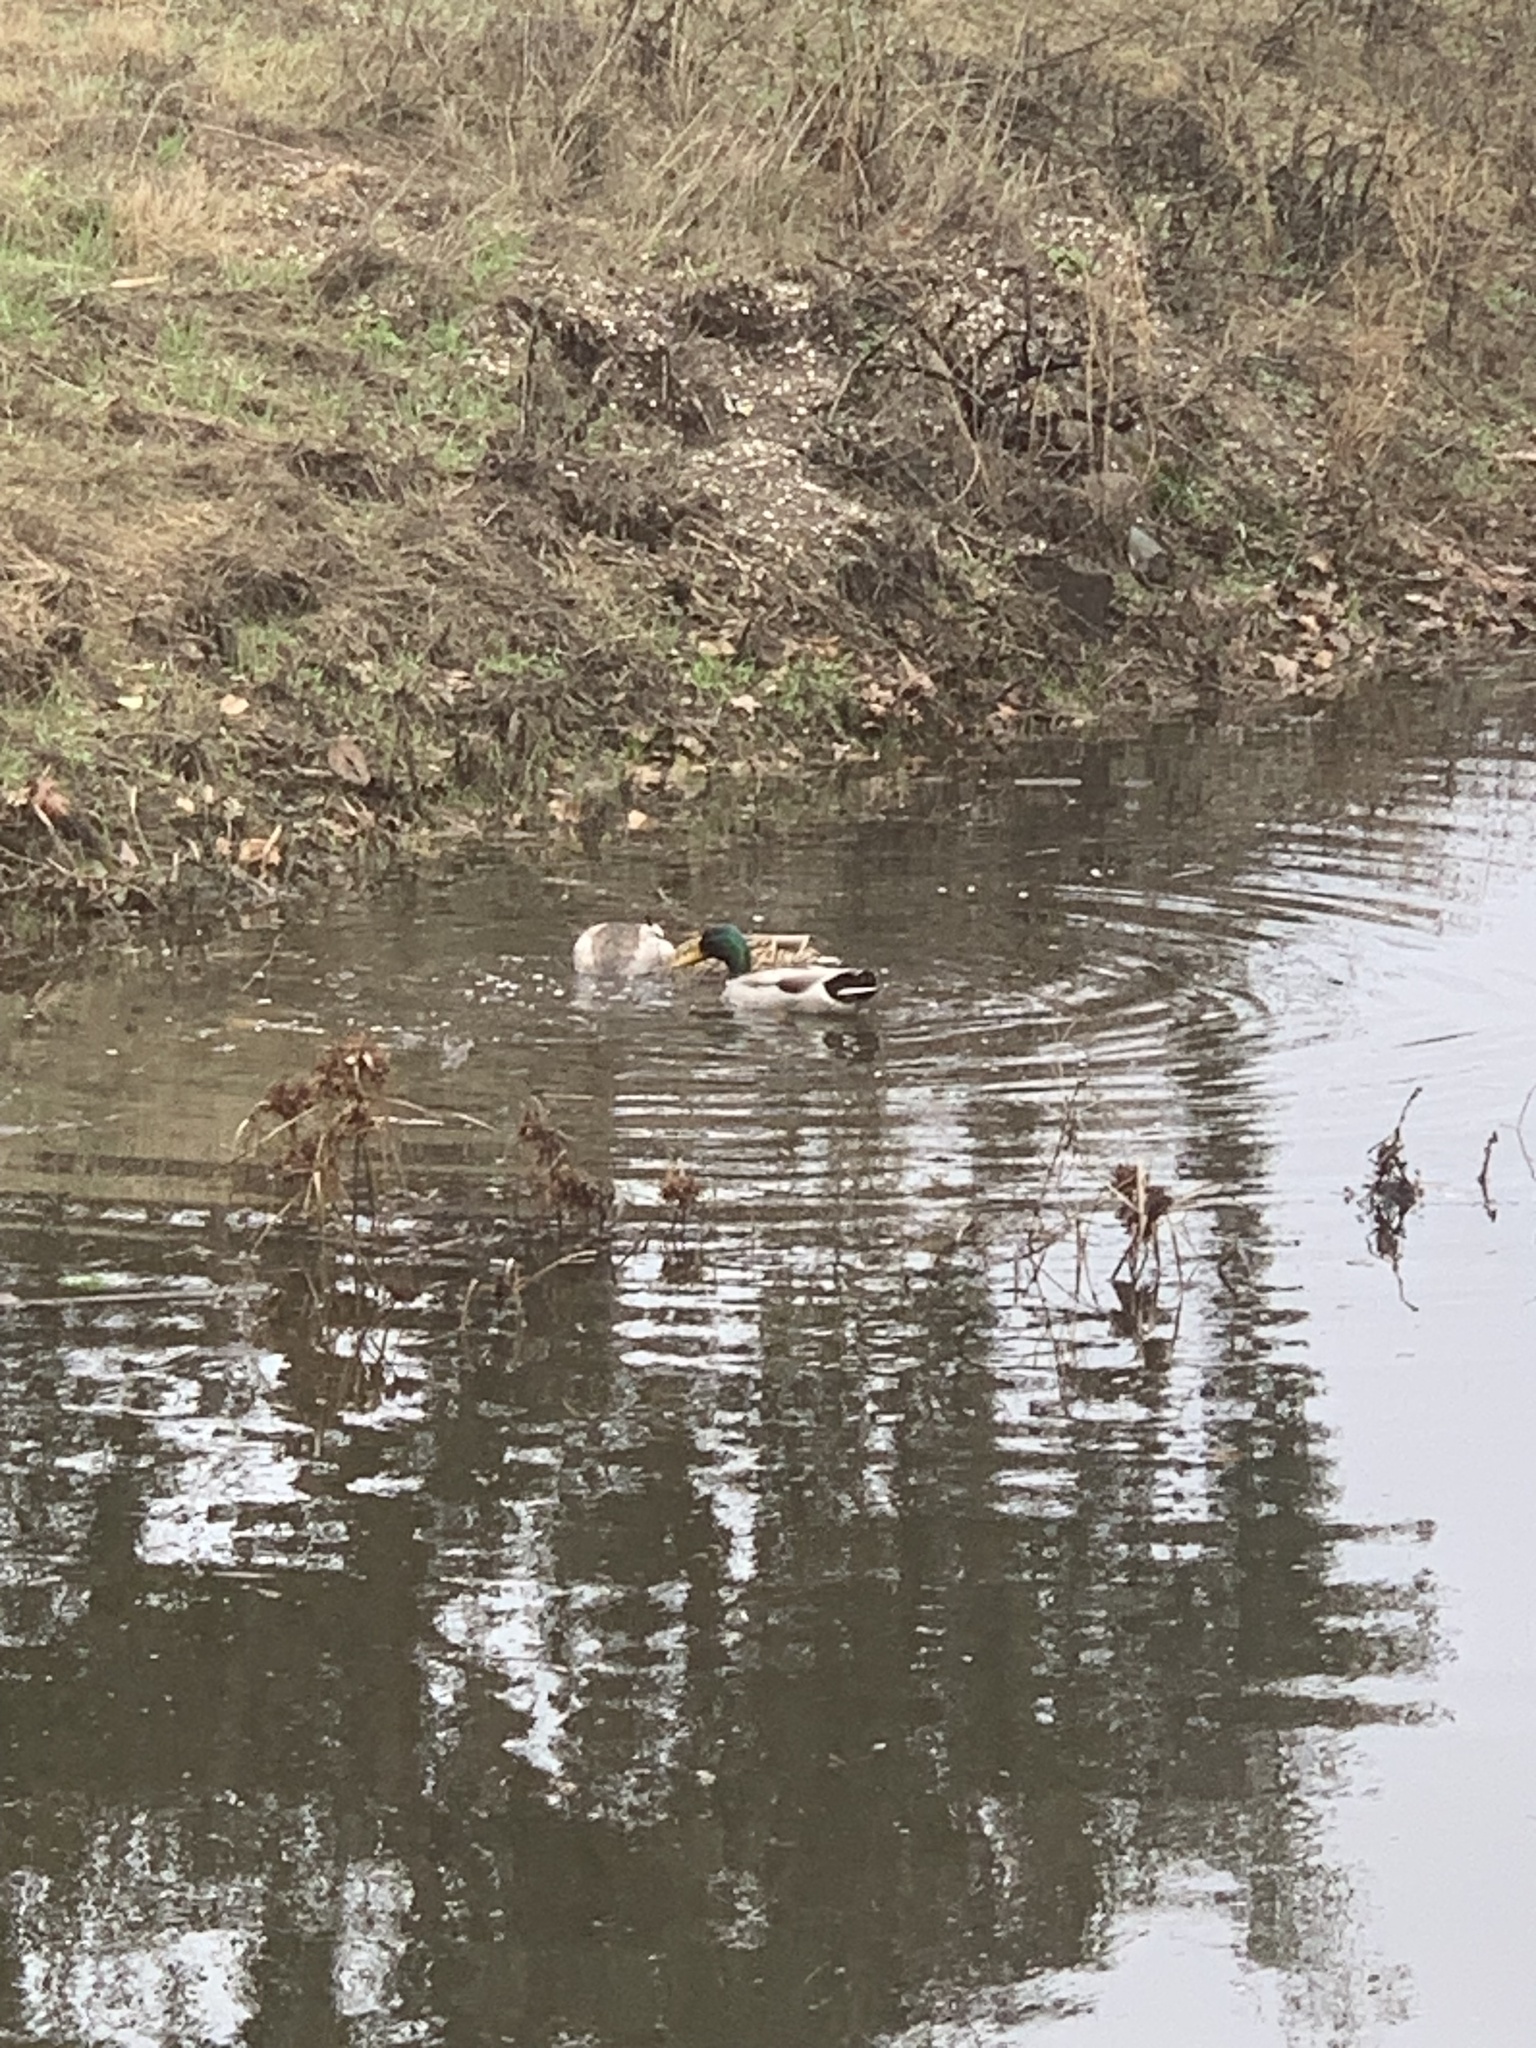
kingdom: Animalia
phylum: Chordata
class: Aves
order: Anseriformes
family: Anatidae
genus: Anas
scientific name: Anas platyrhynchos
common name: Mallard
